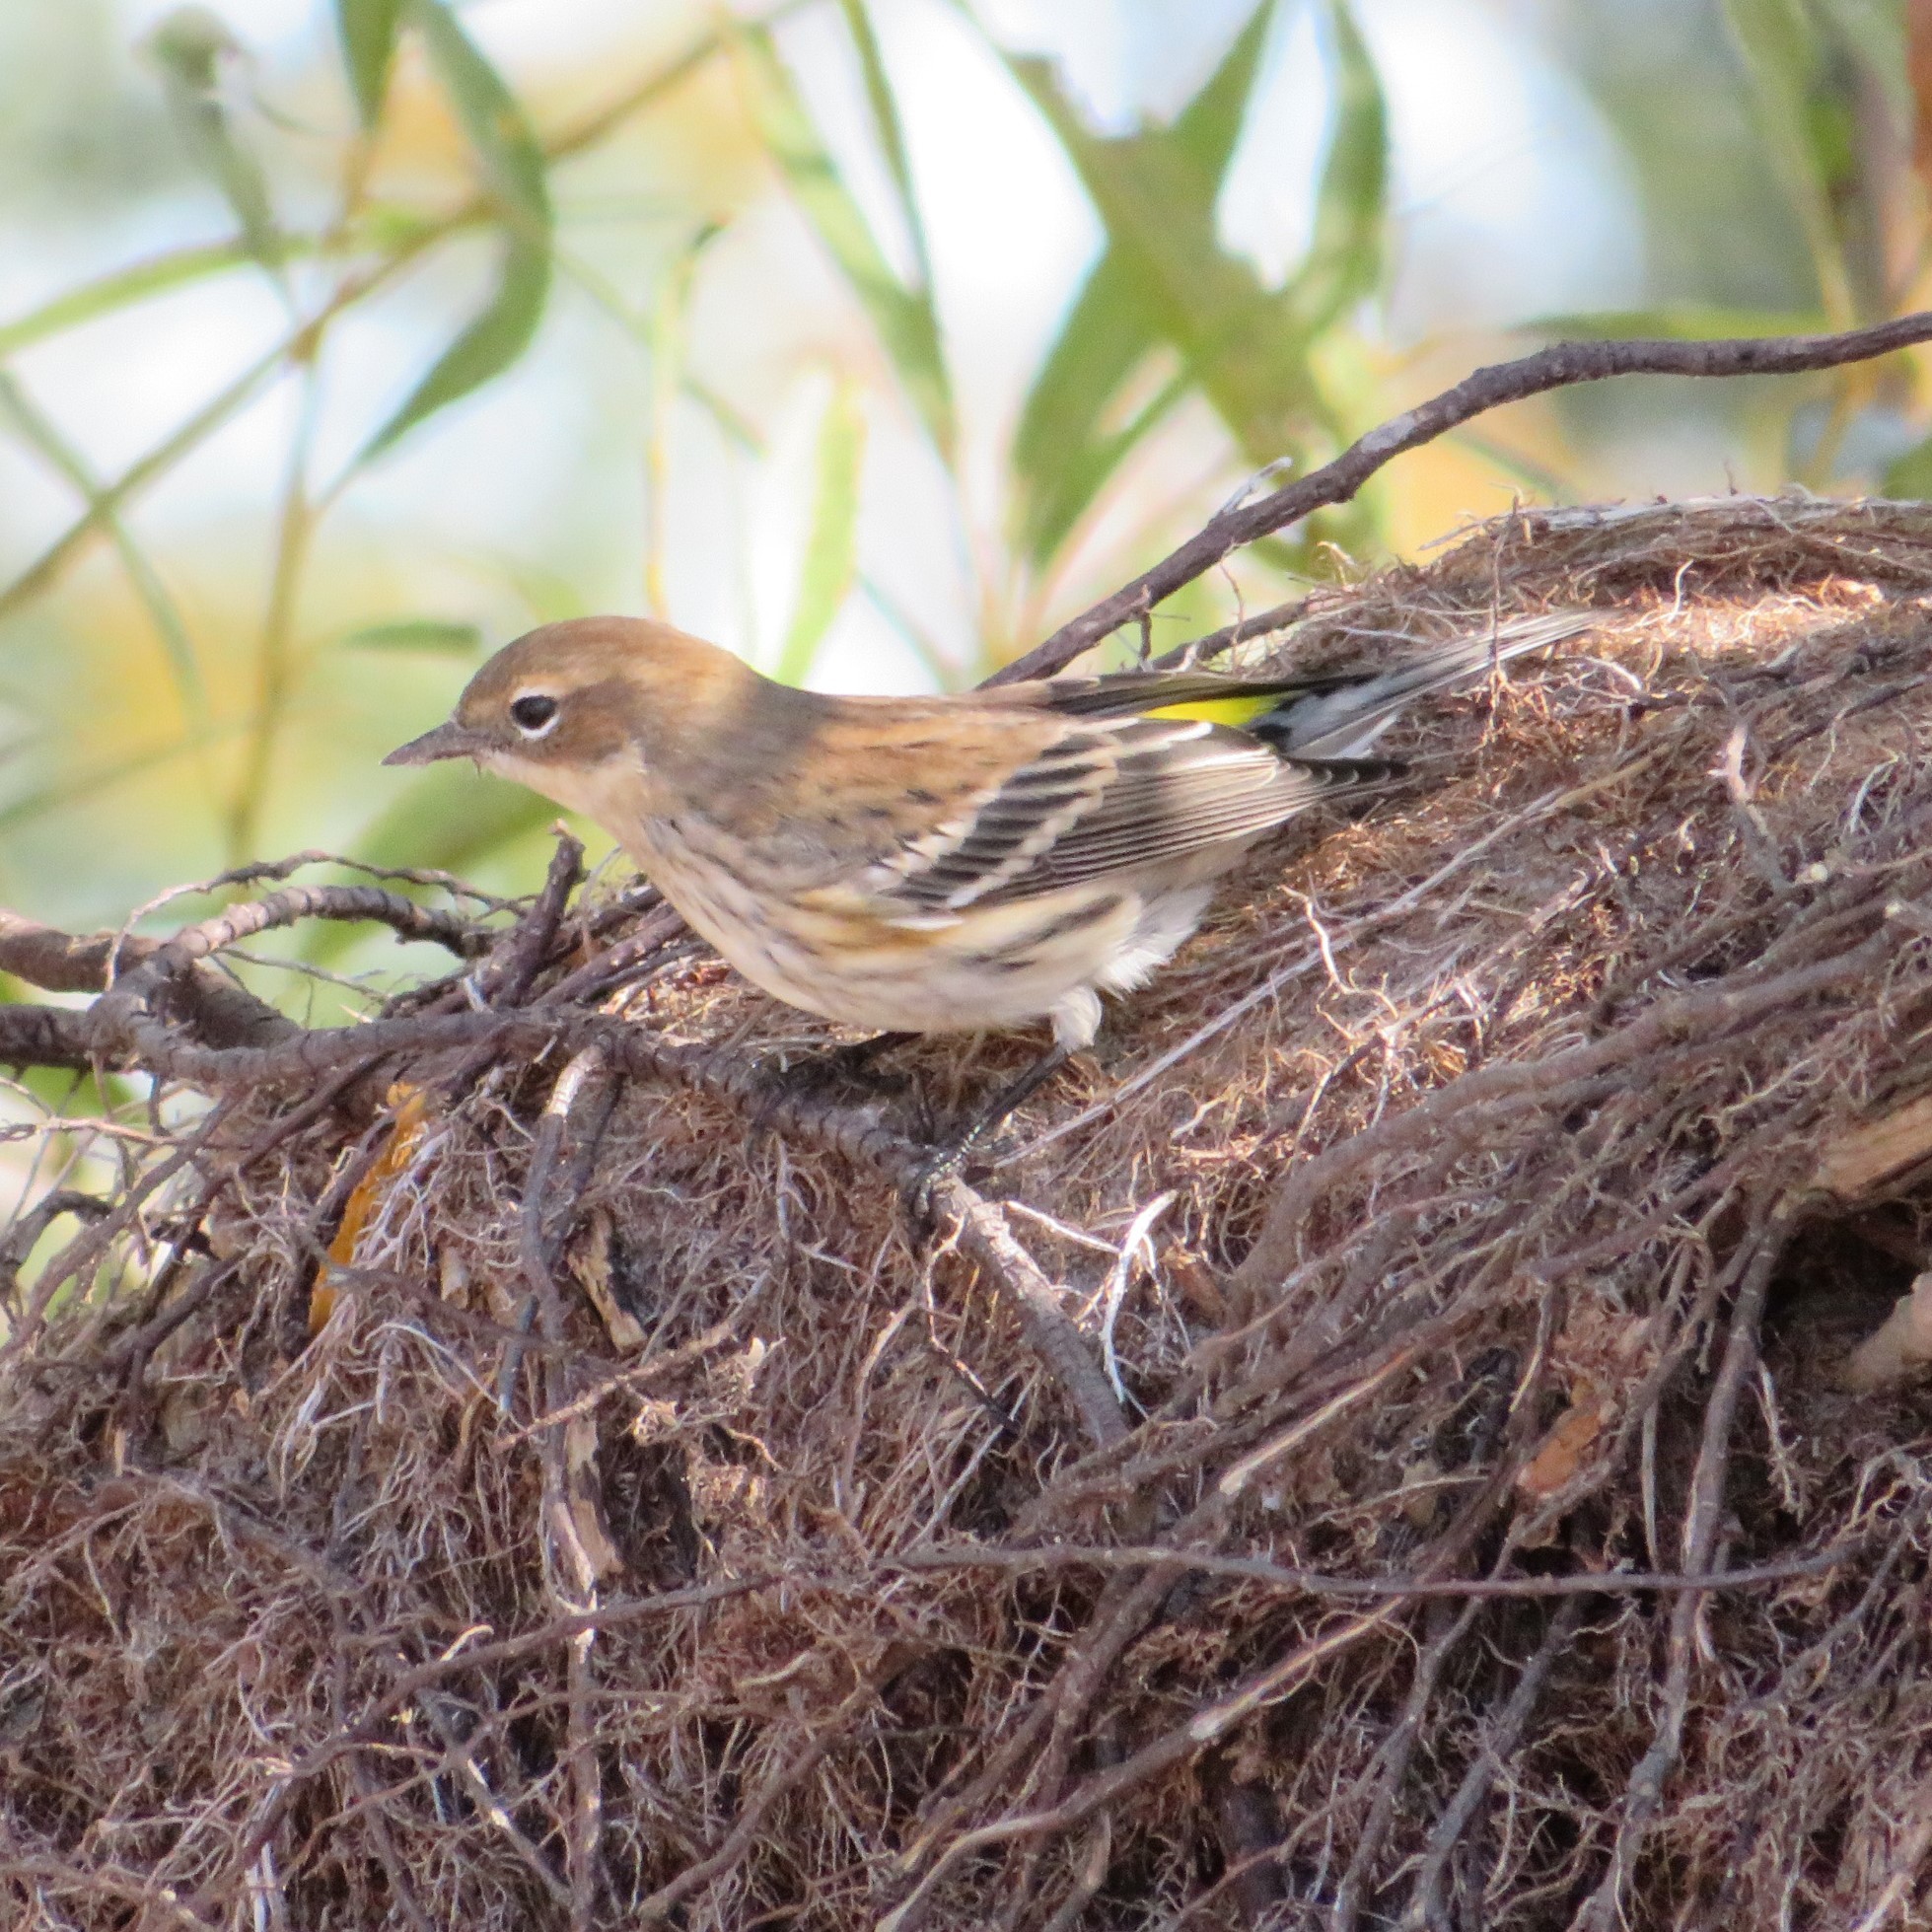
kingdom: Animalia
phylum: Chordata
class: Aves
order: Passeriformes
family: Parulidae
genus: Setophaga
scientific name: Setophaga coronata
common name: Myrtle warbler
